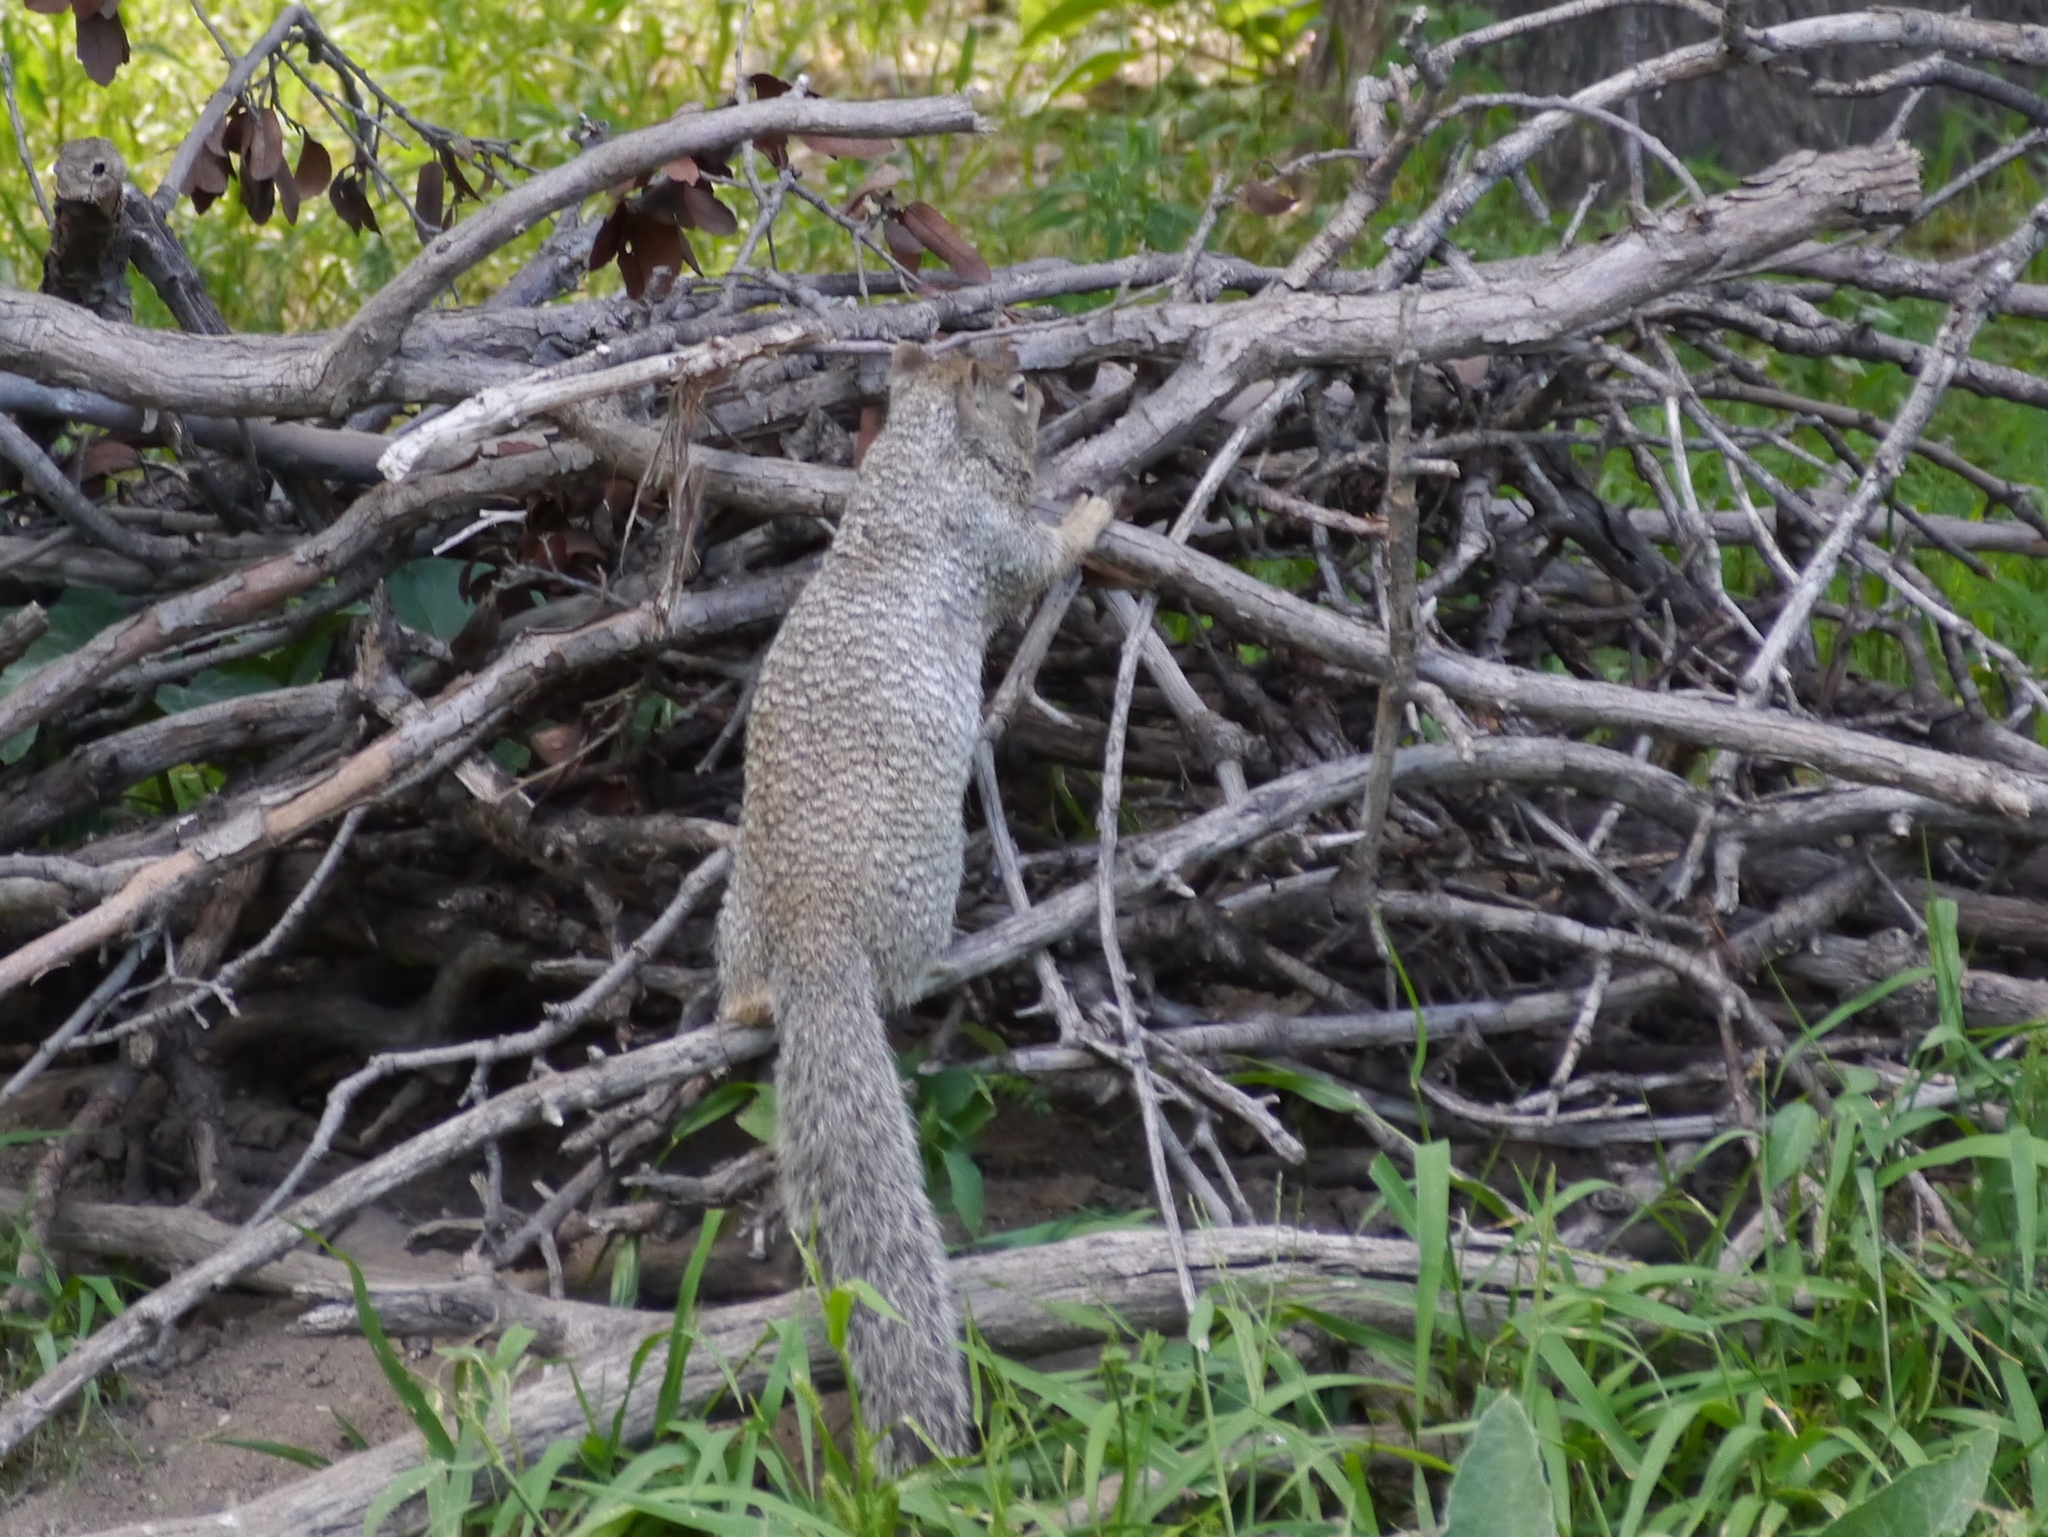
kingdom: Animalia
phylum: Chordata
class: Mammalia
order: Rodentia
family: Sciuridae
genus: Otospermophilus
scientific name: Otospermophilus variegatus
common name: Rock squirrel
